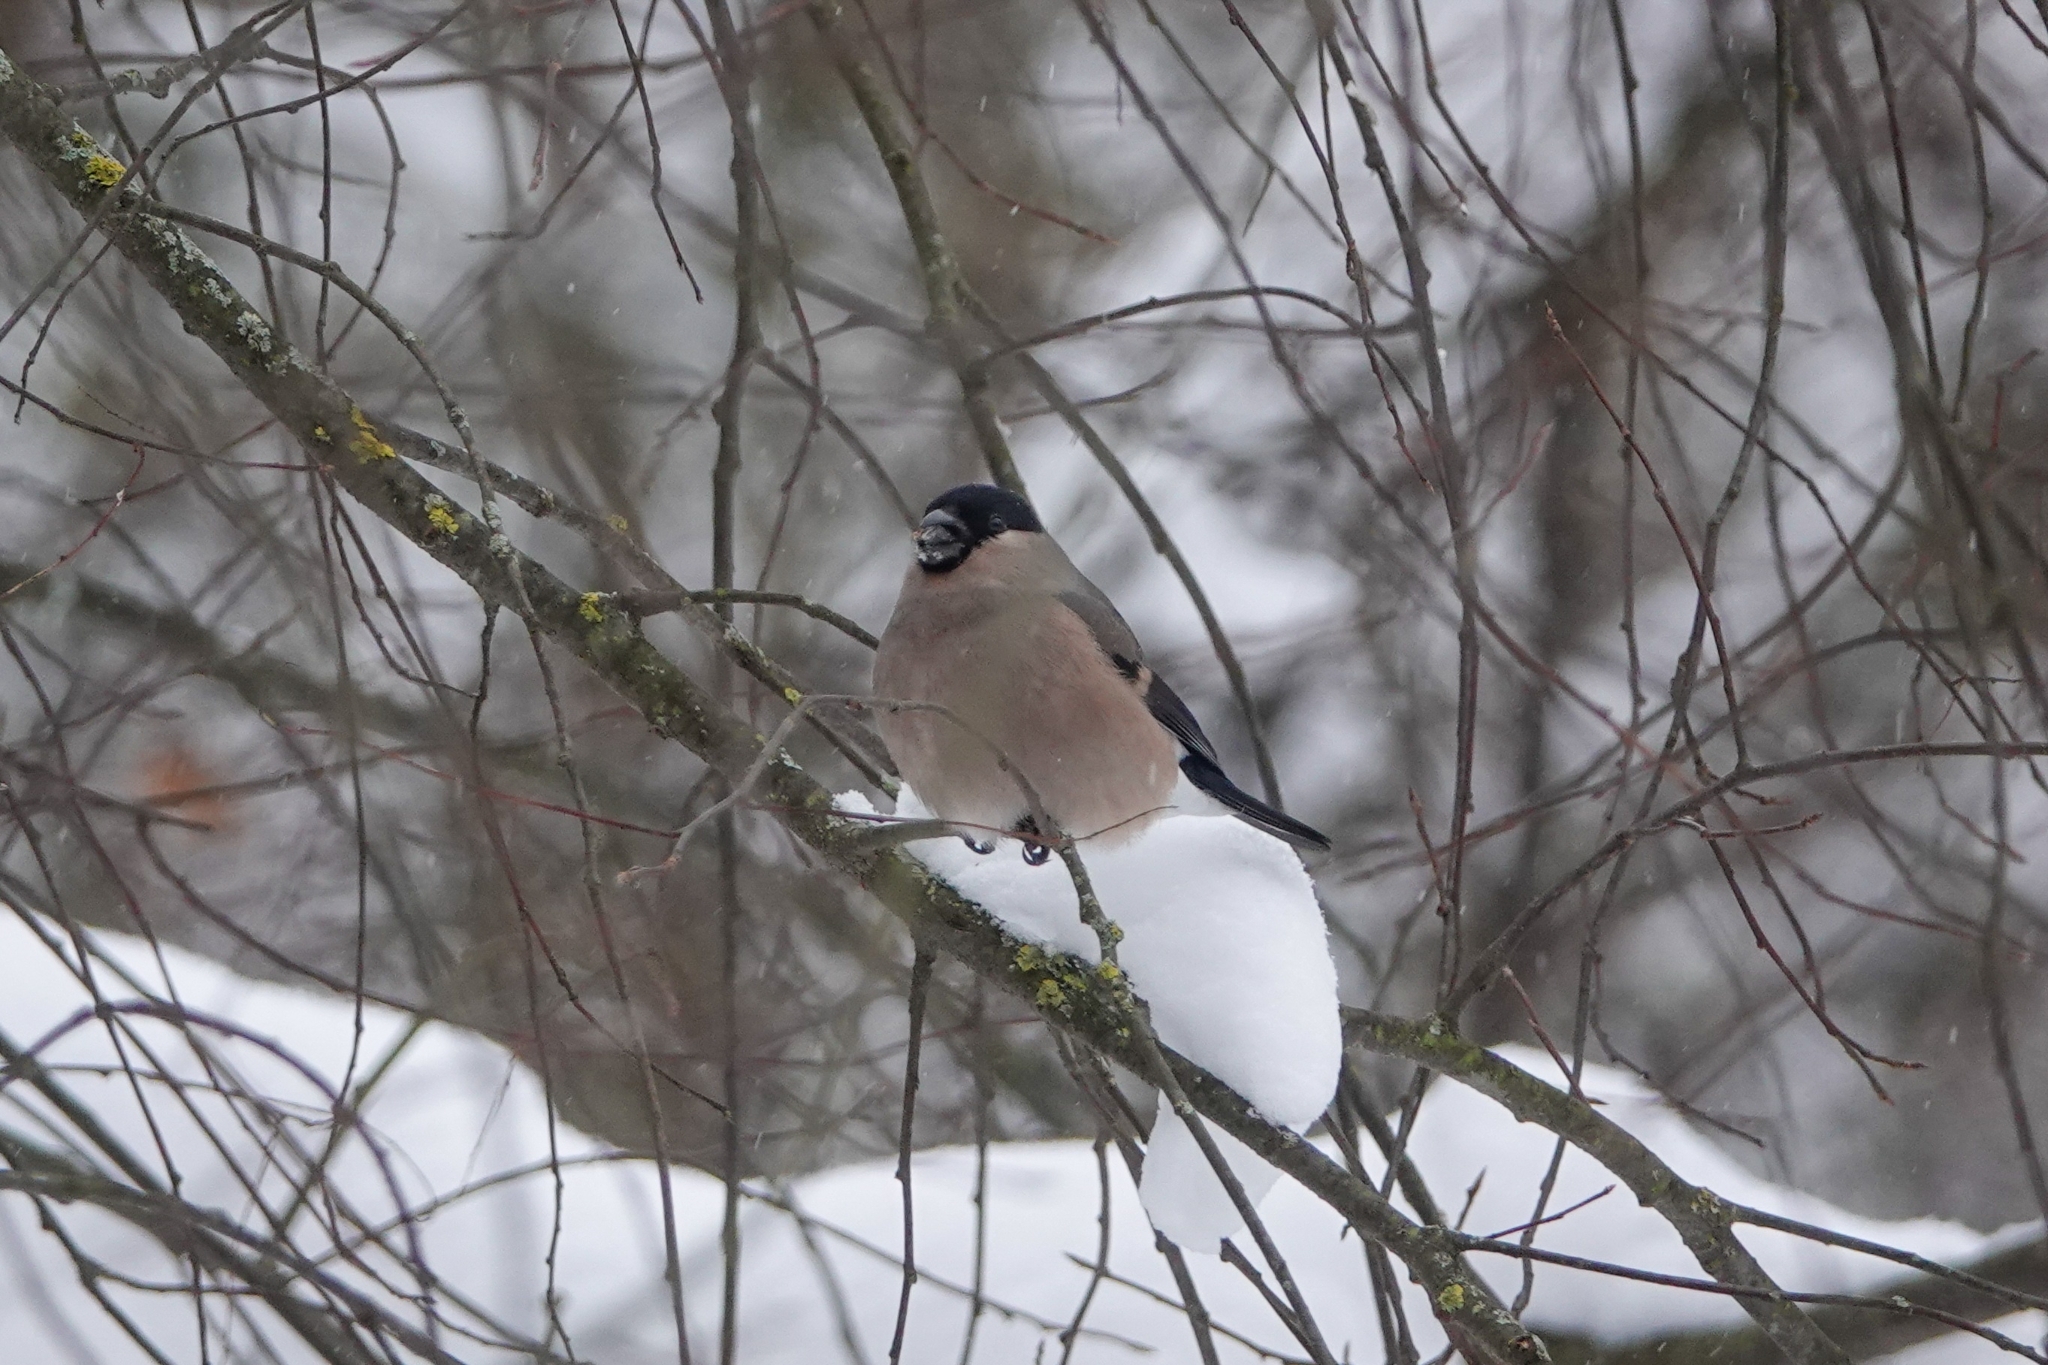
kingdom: Animalia
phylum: Chordata
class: Aves
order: Passeriformes
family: Fringillidae
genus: Pyrrhula
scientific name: Pyrrhula pyrrhula
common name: Eurasian bullfinch
